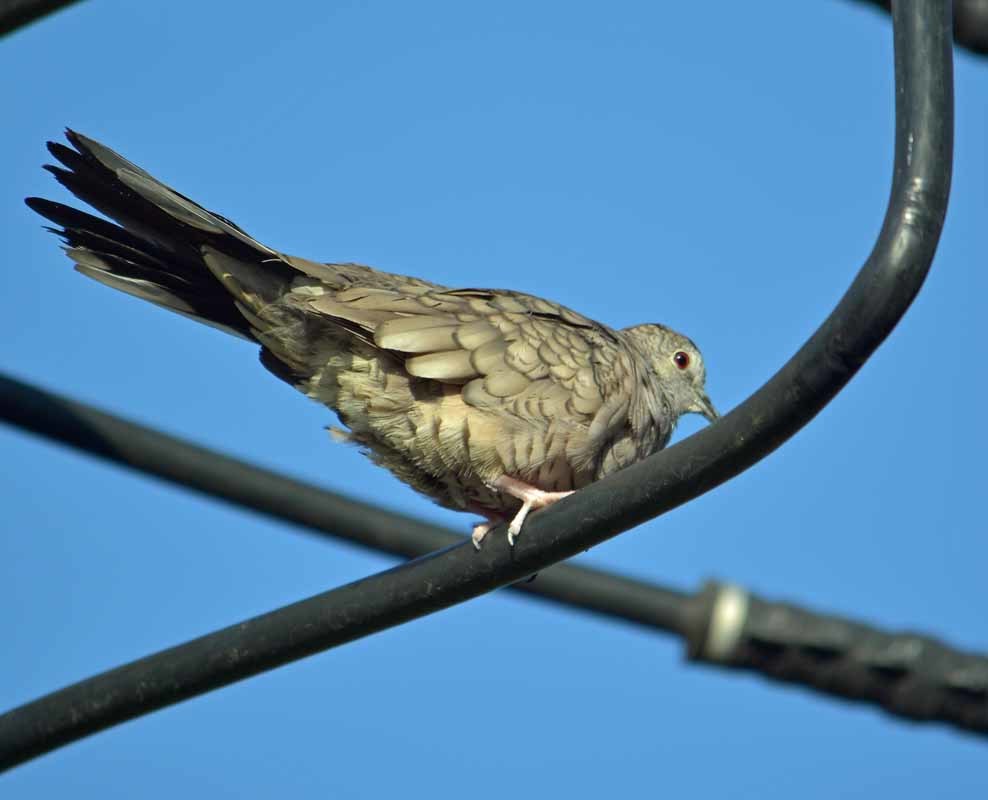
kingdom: Animalia
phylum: Chordata
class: Aves
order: Columbiformes
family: Columbidae
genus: Columbina
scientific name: Columbina inca
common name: Inca dove
